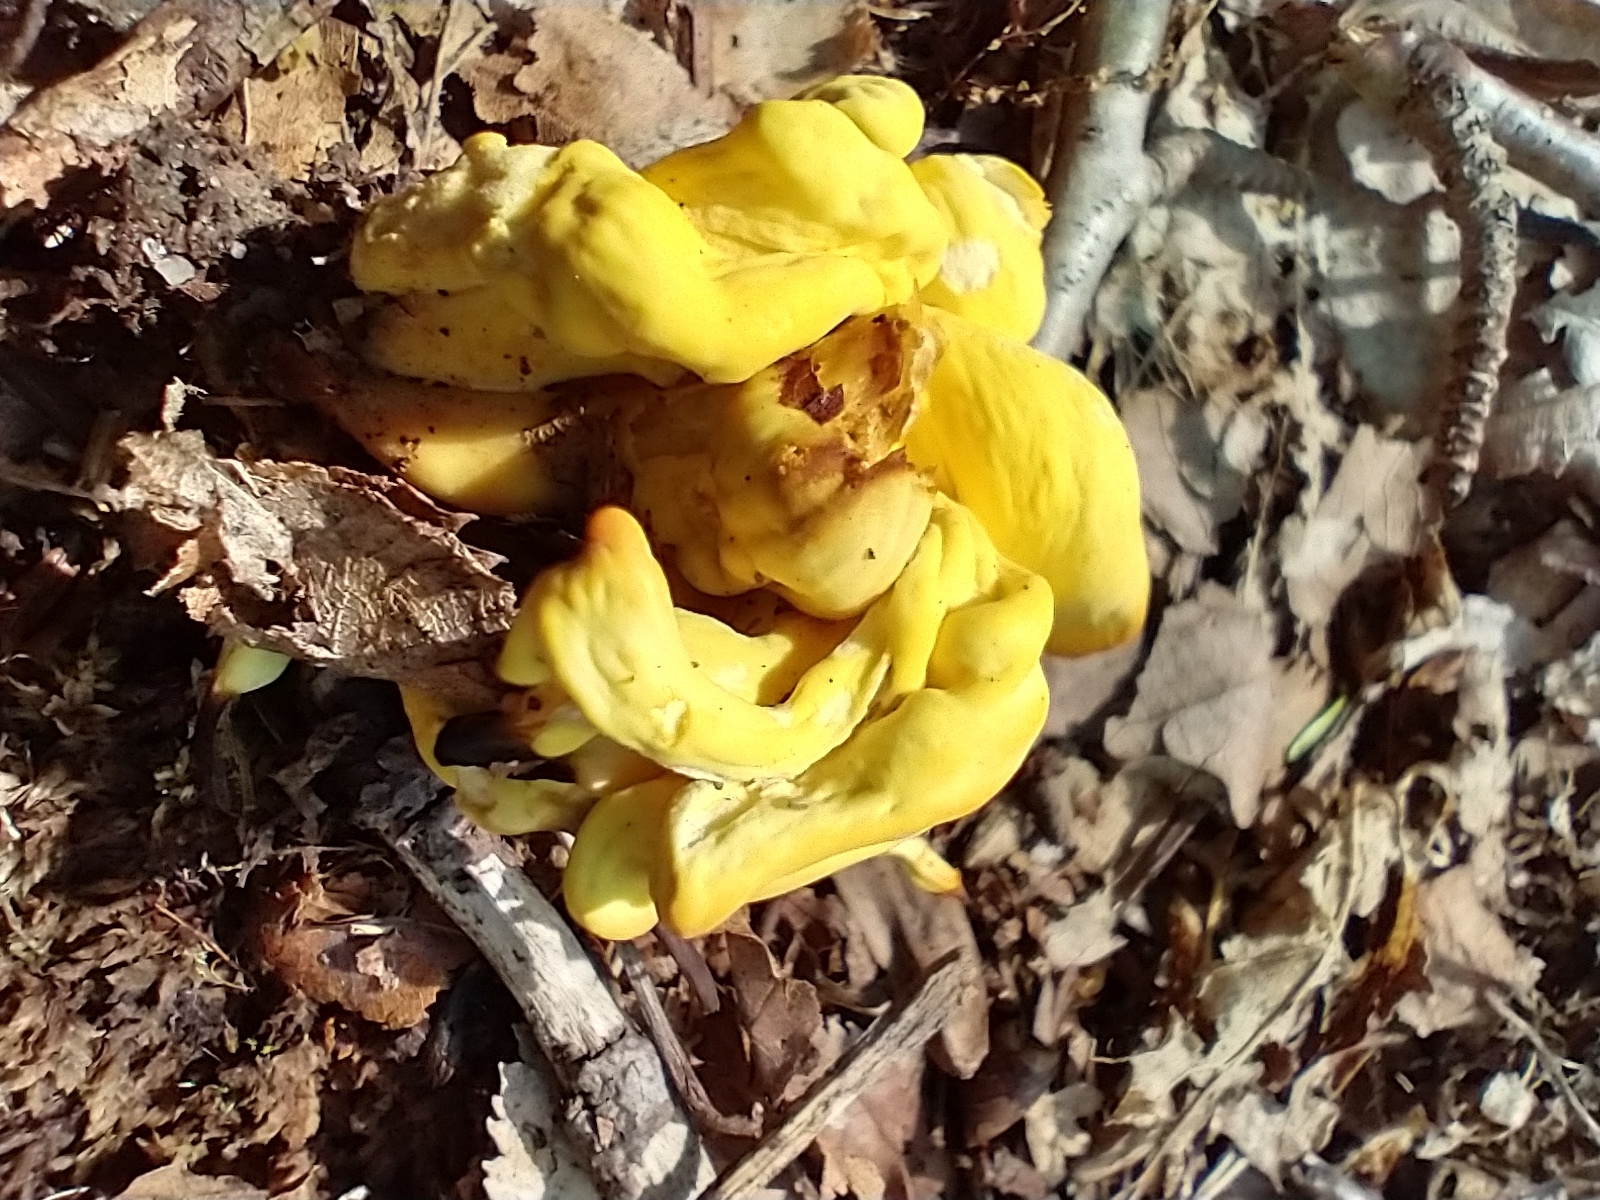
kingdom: Fungi
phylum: Basidiomycota
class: Agaricomycetes
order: Agaricales
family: Clavariaceae
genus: Clavulinopsis
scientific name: Clavulinopsis fusiformis
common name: Golden spindles
